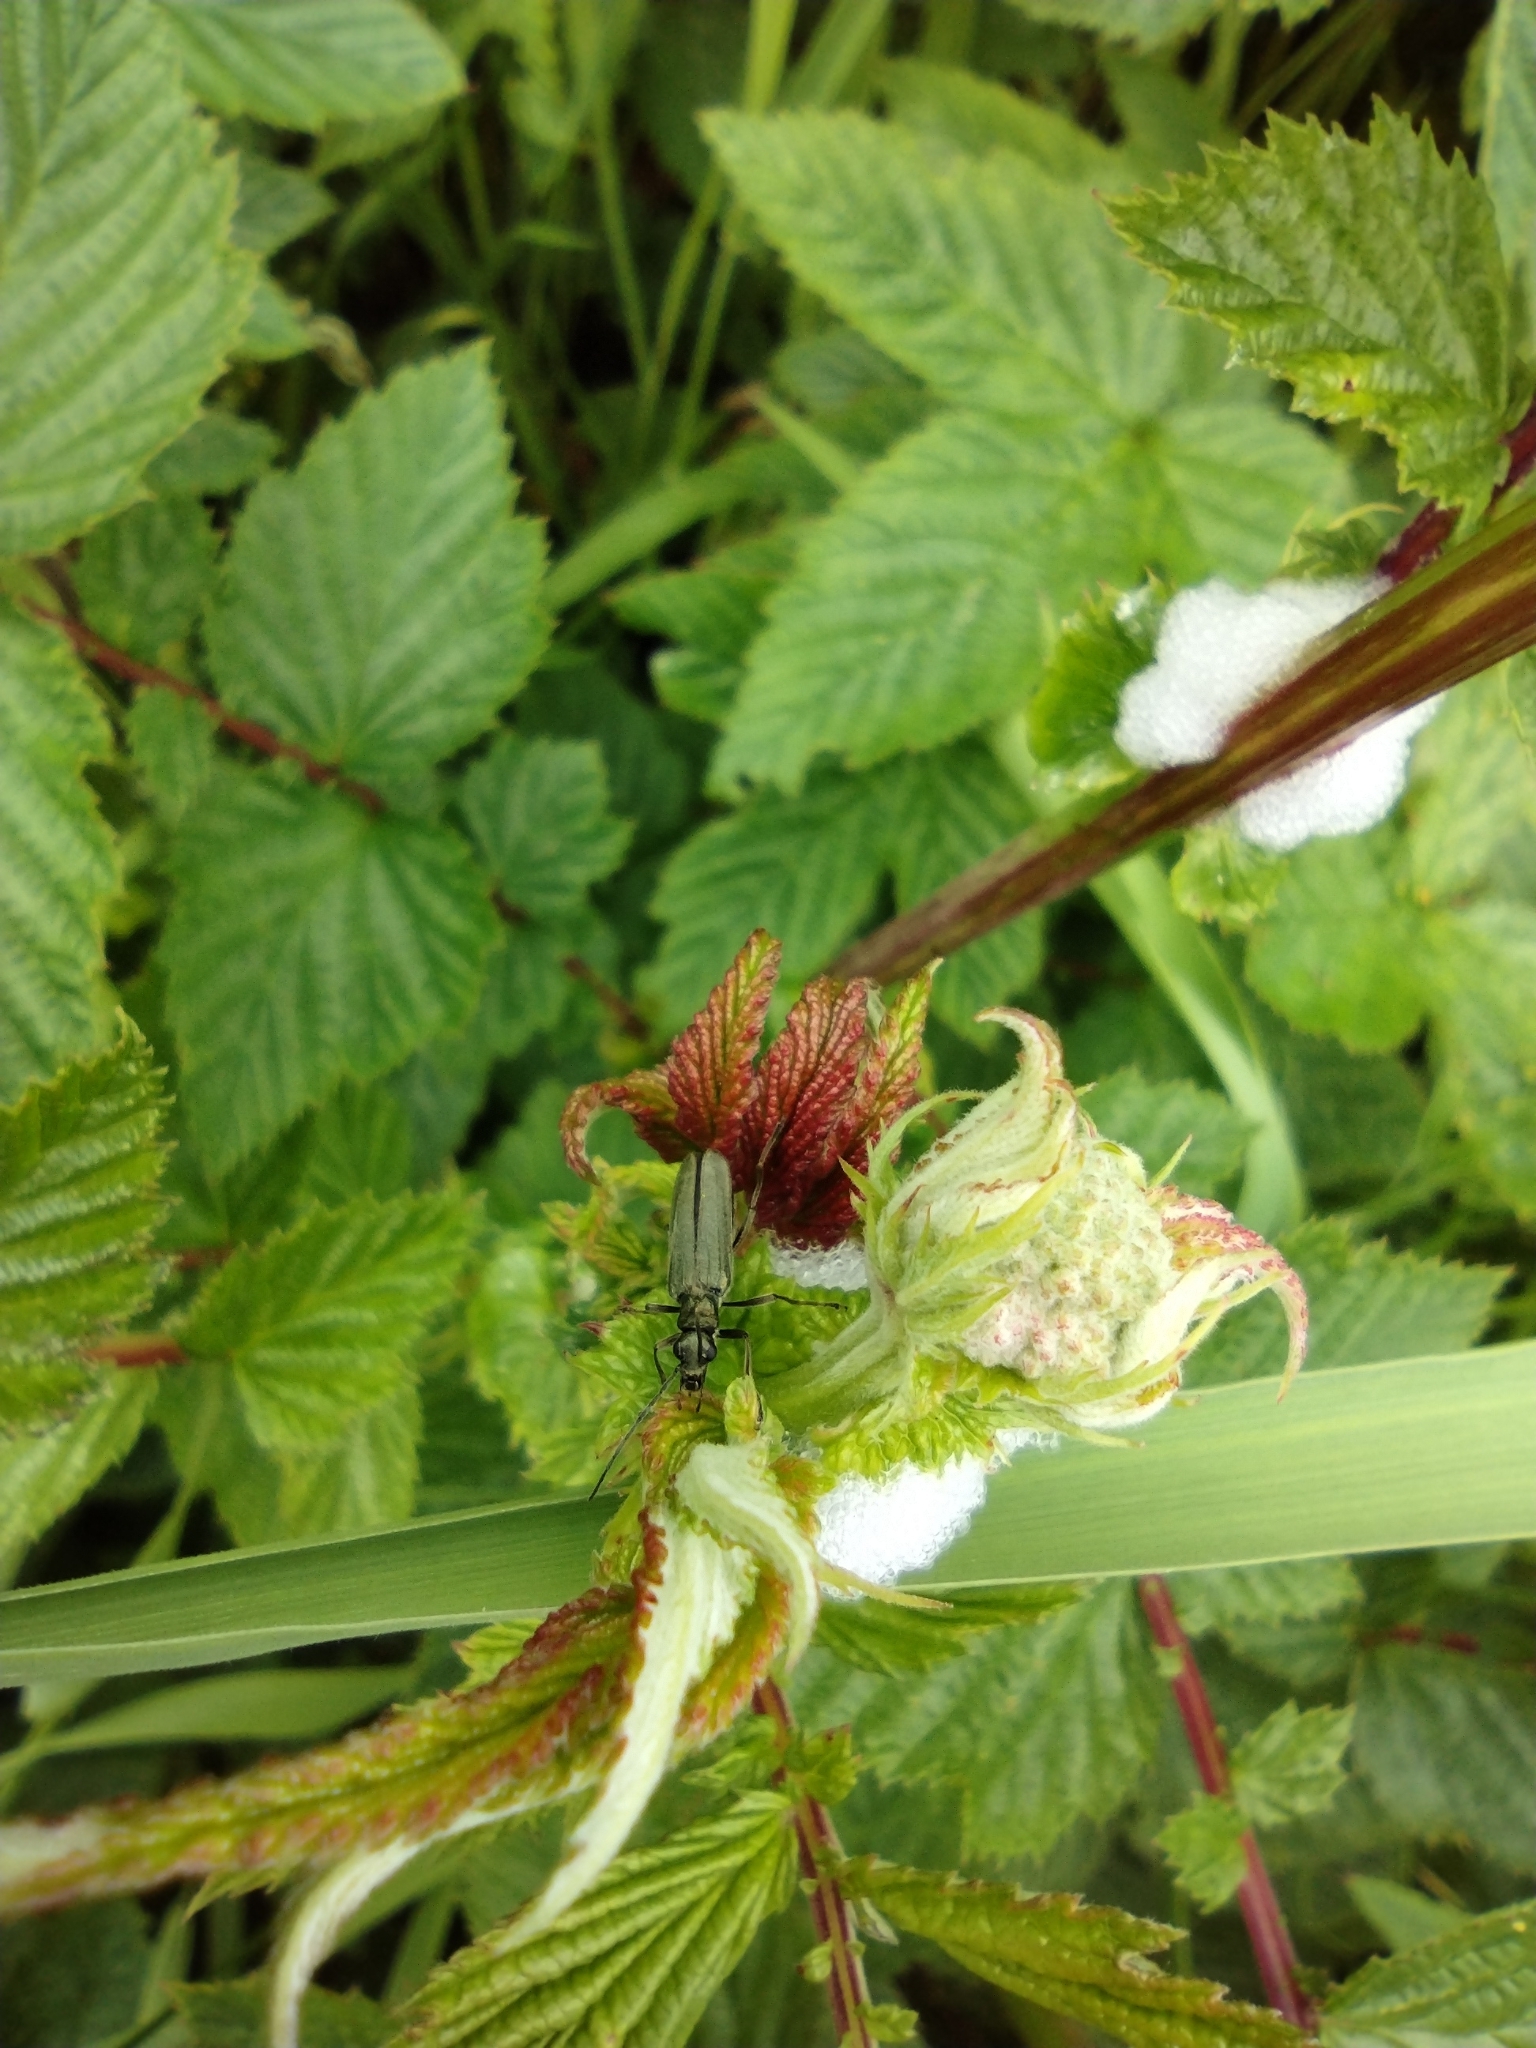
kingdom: Animalia
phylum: Arthropoda
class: Insecta
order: Coleoptera
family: Oedemeridae
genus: Oedemera
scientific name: Oedemera virescens
